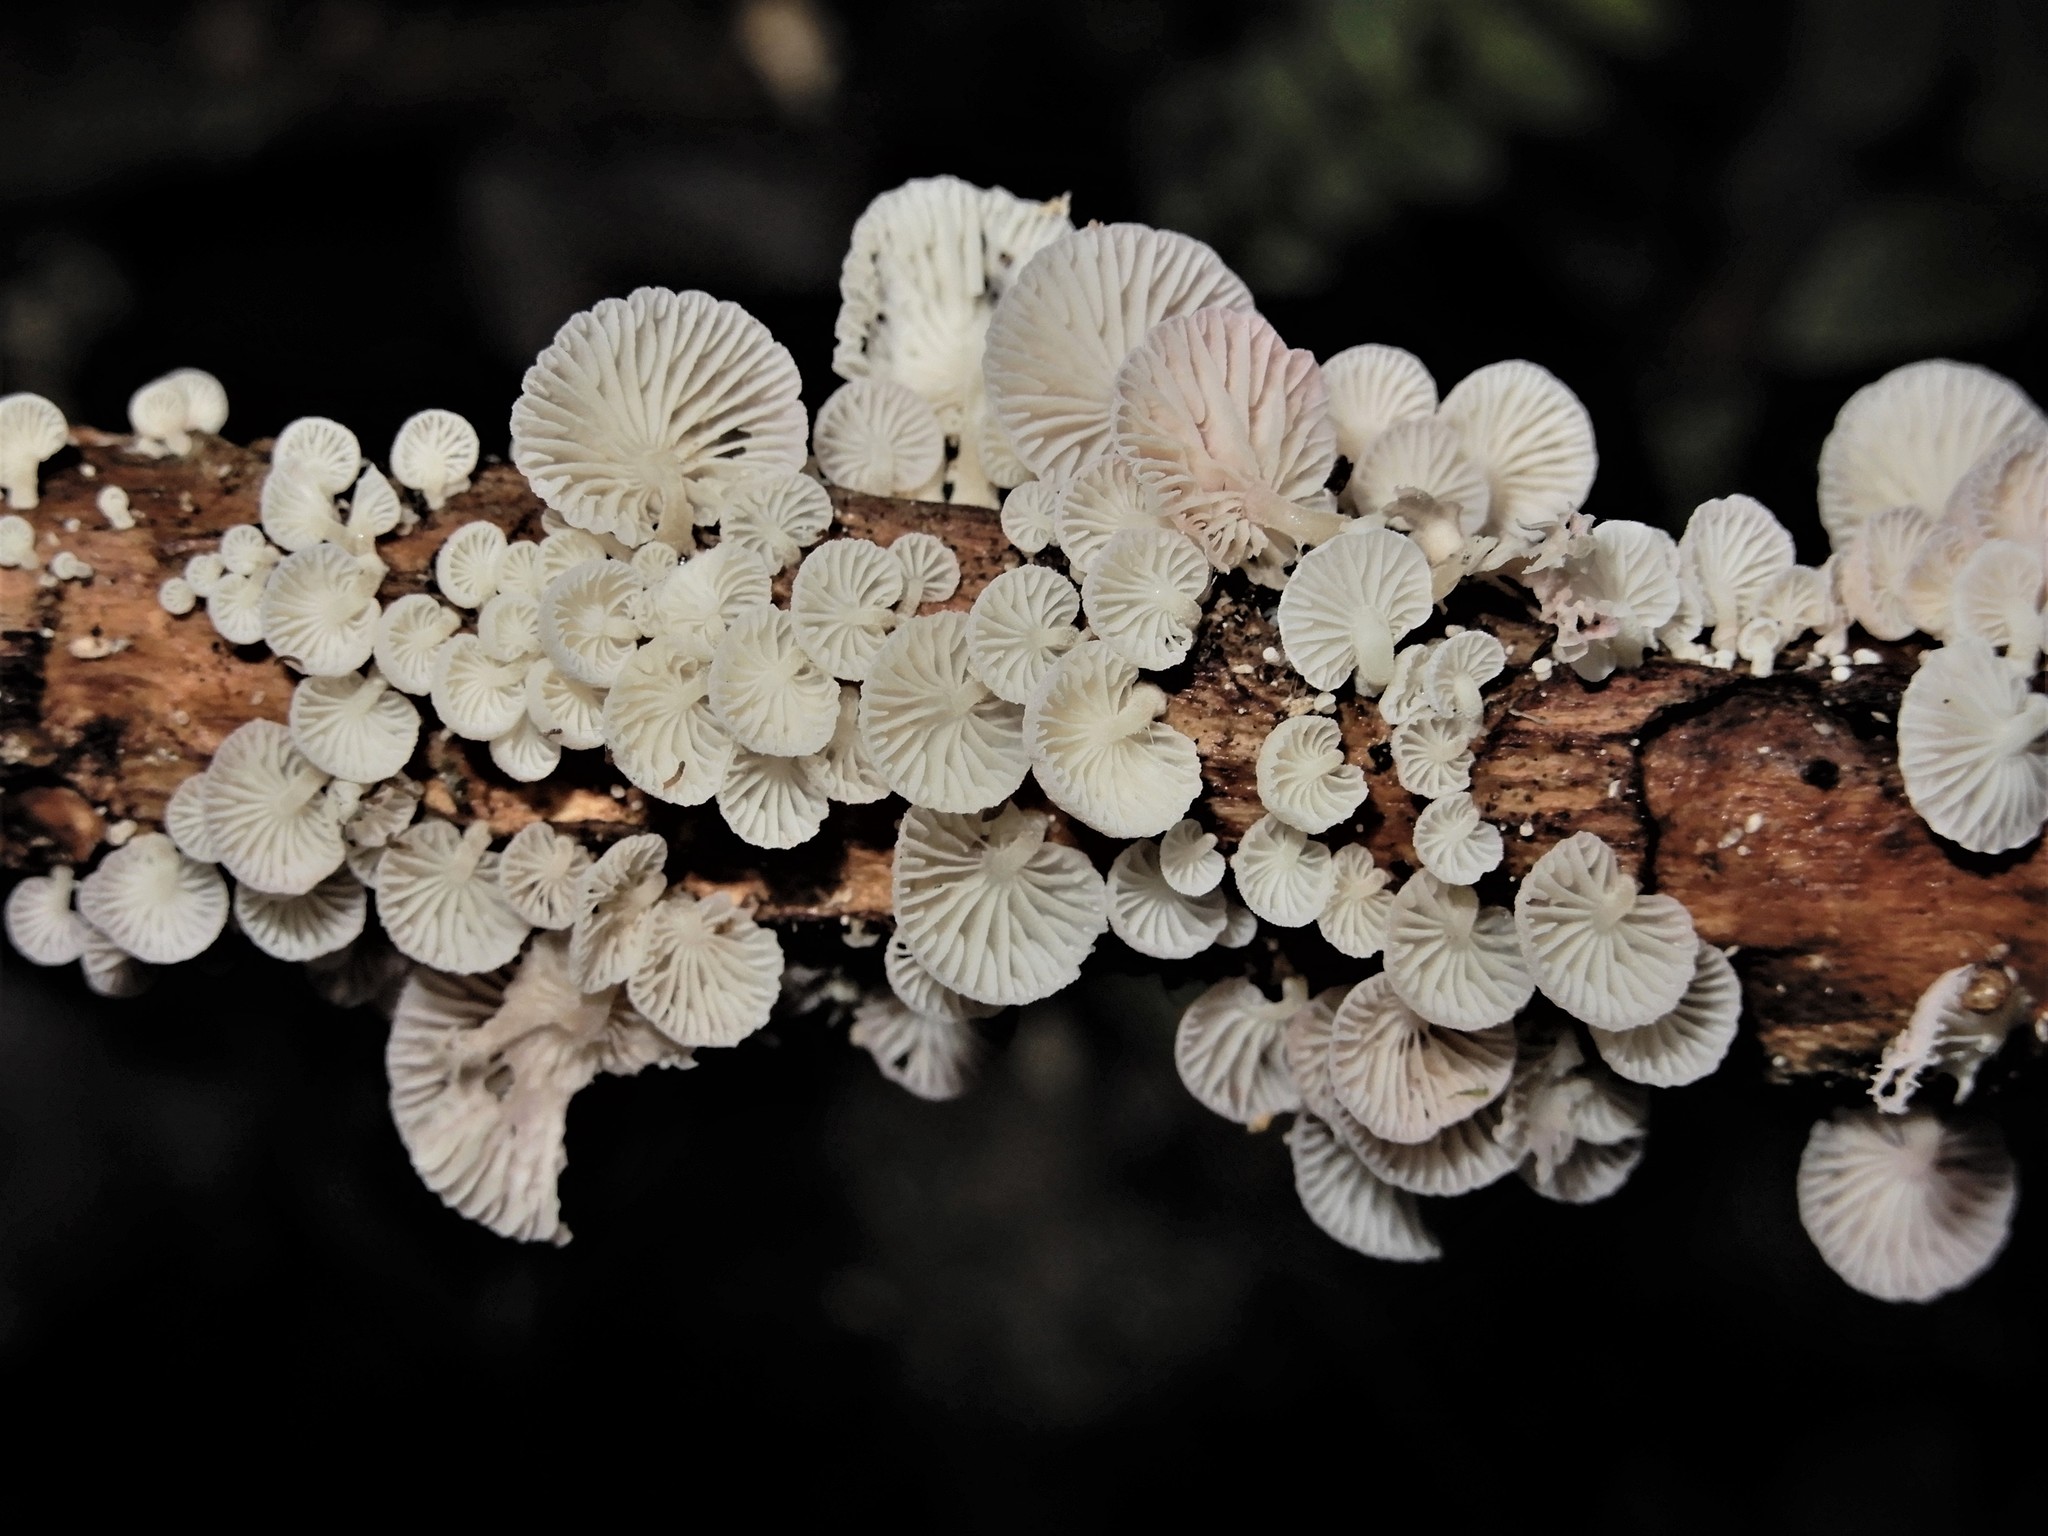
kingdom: Fungi
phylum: Basidiomycota
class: Agaricomycetes
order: Agaricales
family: Mycenaceae
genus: Mycena
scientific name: Mycena roseoflava
